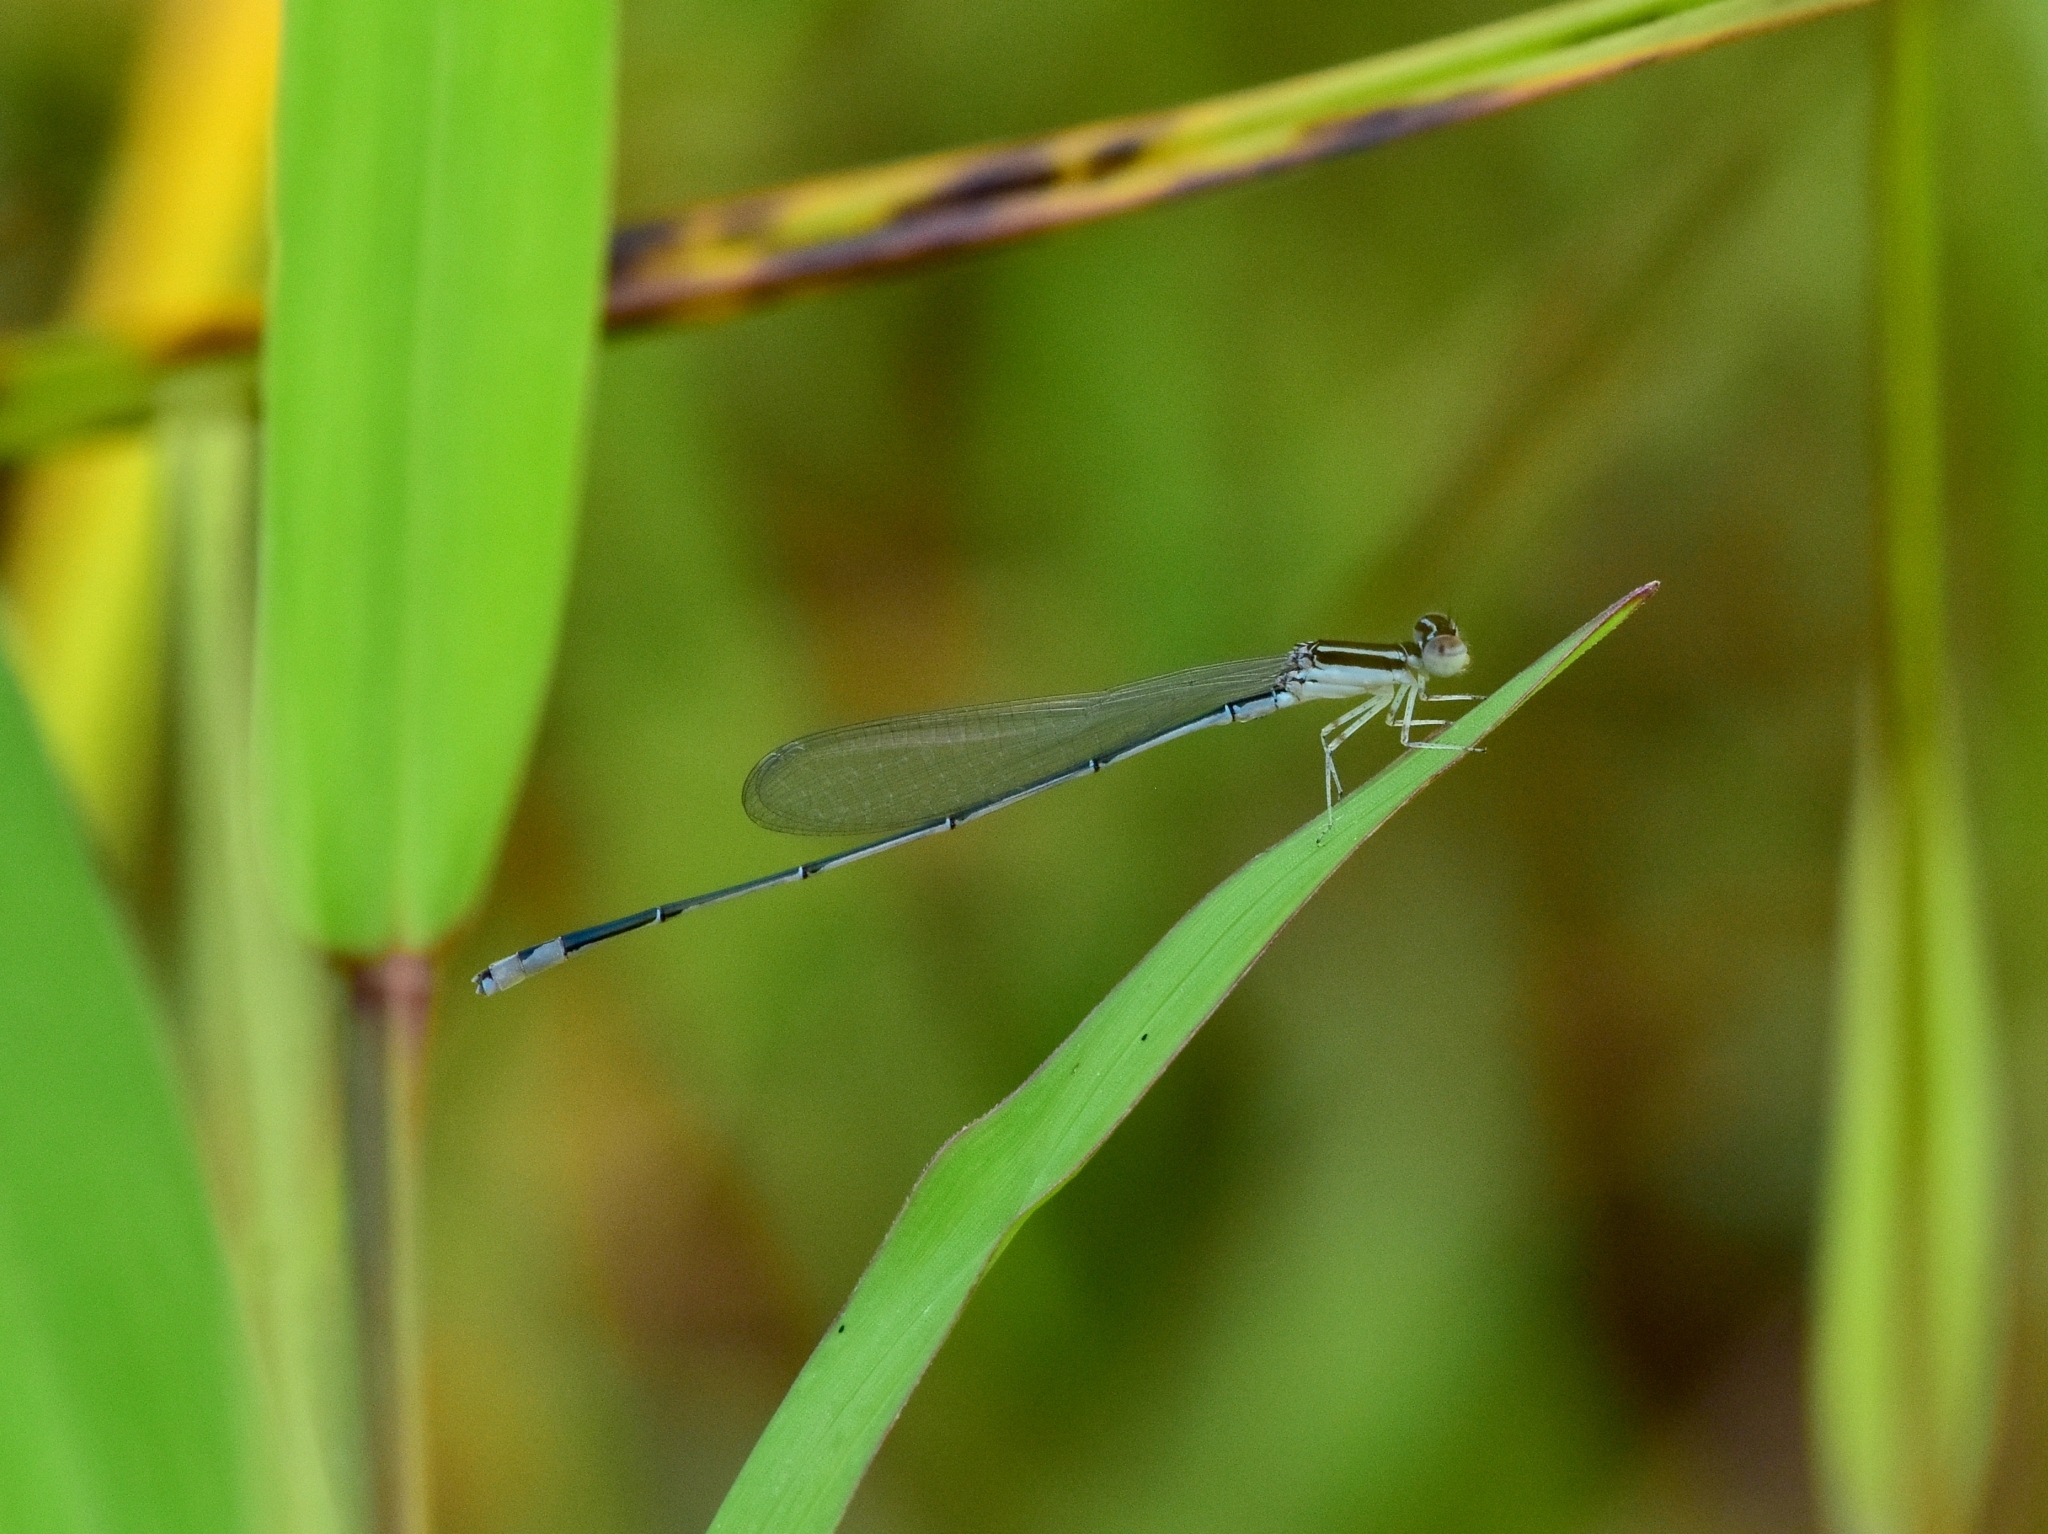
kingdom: Animalia
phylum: Arthropoda
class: Insecta
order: Odonata
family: Coenagrionidae
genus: Aciagrion
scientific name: Aciagrion occidentale
